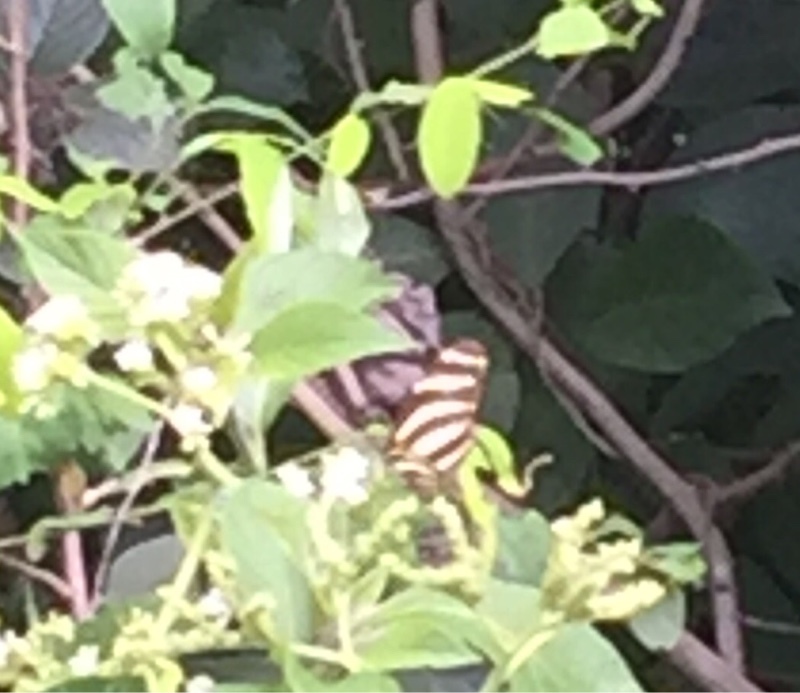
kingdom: Animalia
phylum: Arthropoda
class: Insecta
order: Lepidoptera
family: Nymphalidae
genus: Heliconius
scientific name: Heliconius charithonia
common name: Zebra long wing
